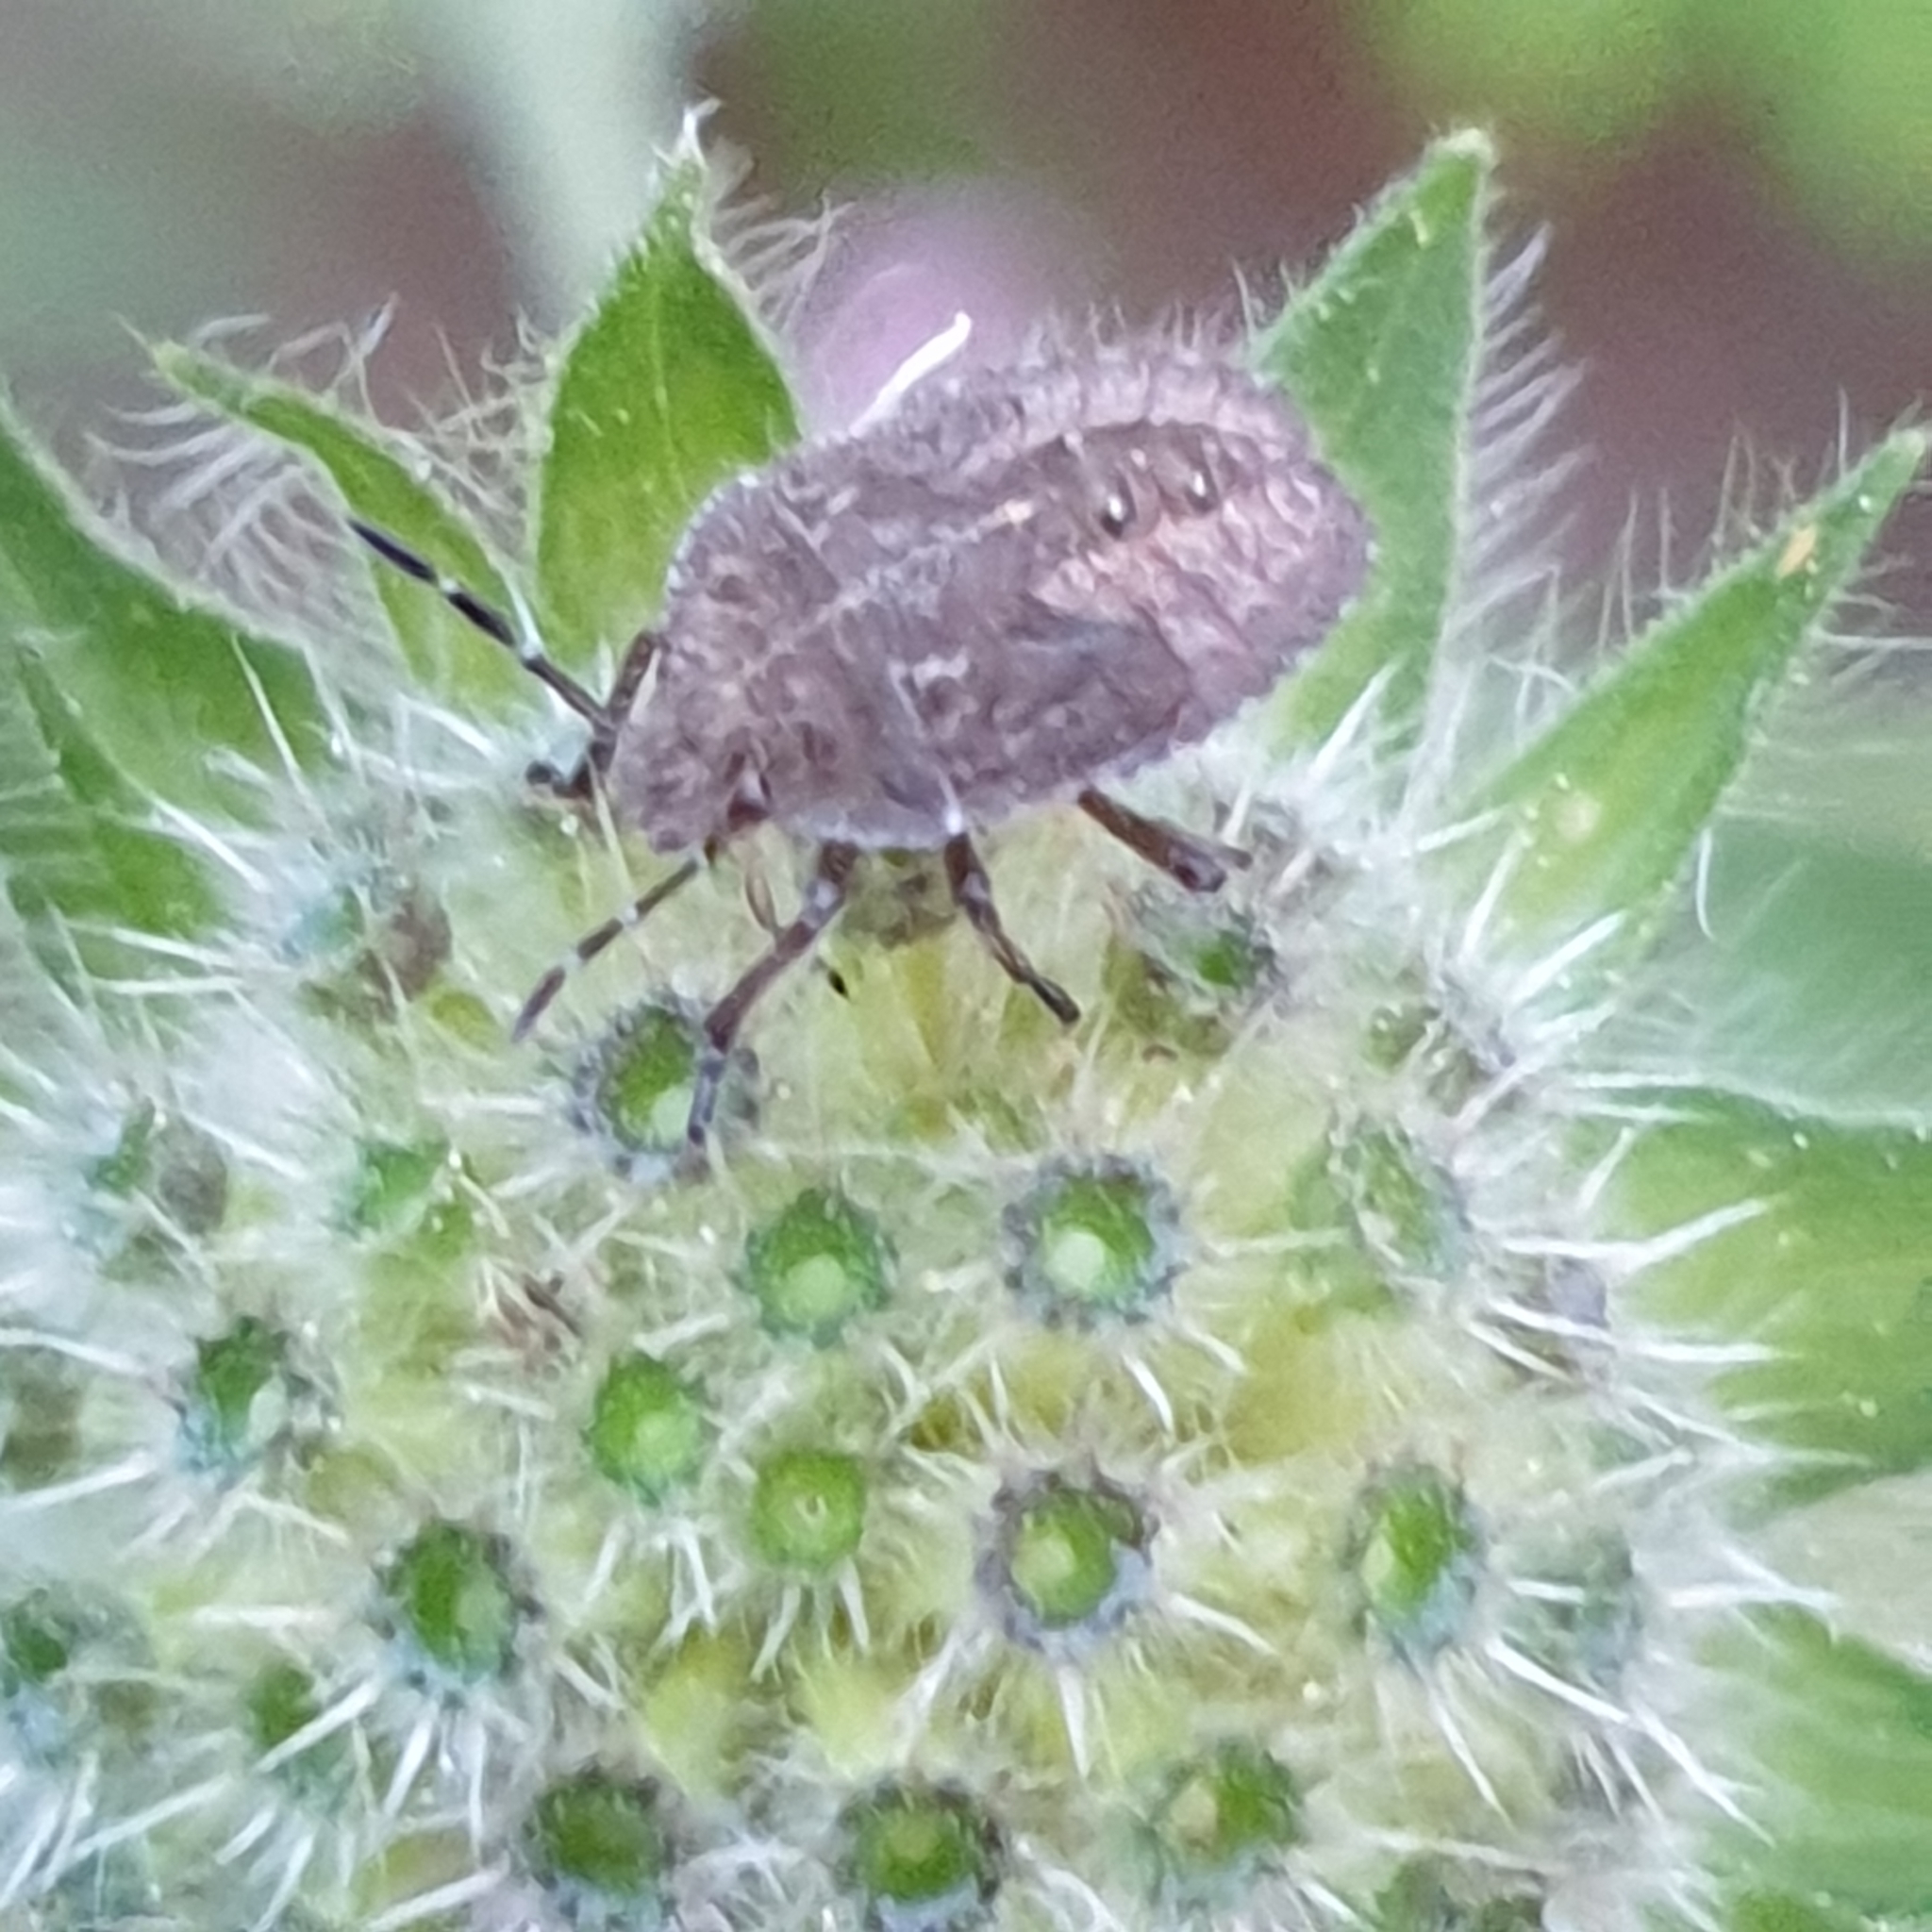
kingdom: Animalia
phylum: Arthropoda
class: Insecta
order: Hemiptera
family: Pentatomidae
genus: Dolycoris
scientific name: Dolycoris baccarum
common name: Sloe bug
